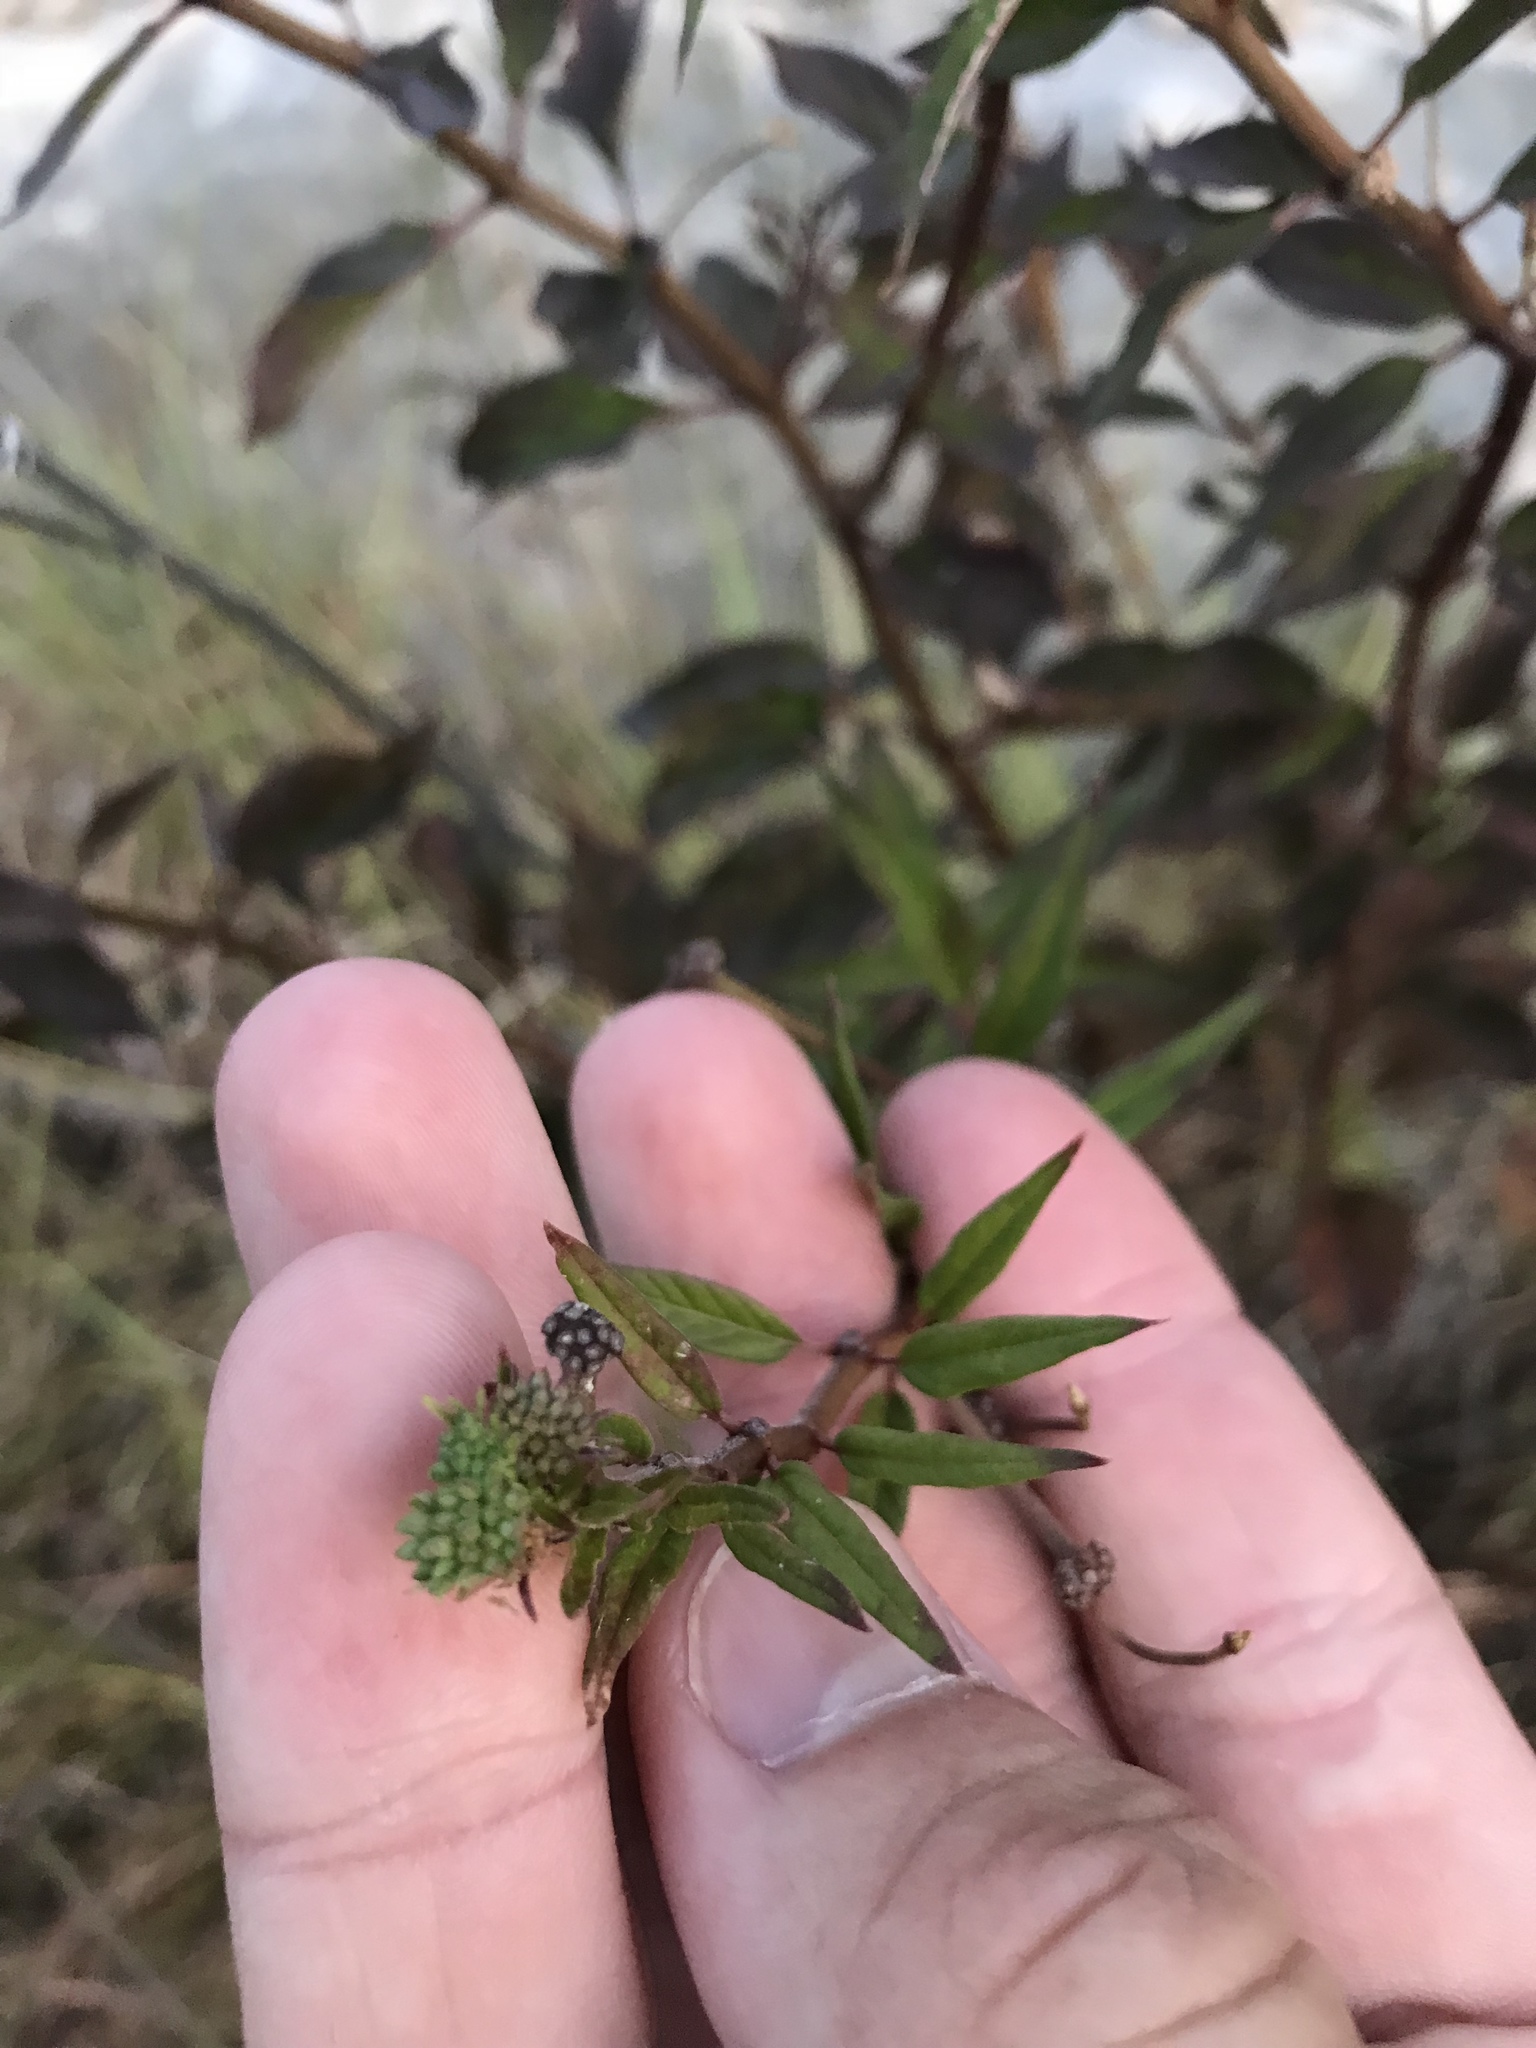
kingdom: Plantae
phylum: Tracheophyta
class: Magnoliopsida
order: Gentianales
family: Apocynaceae
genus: Asclepias
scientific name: Asclepias texana
